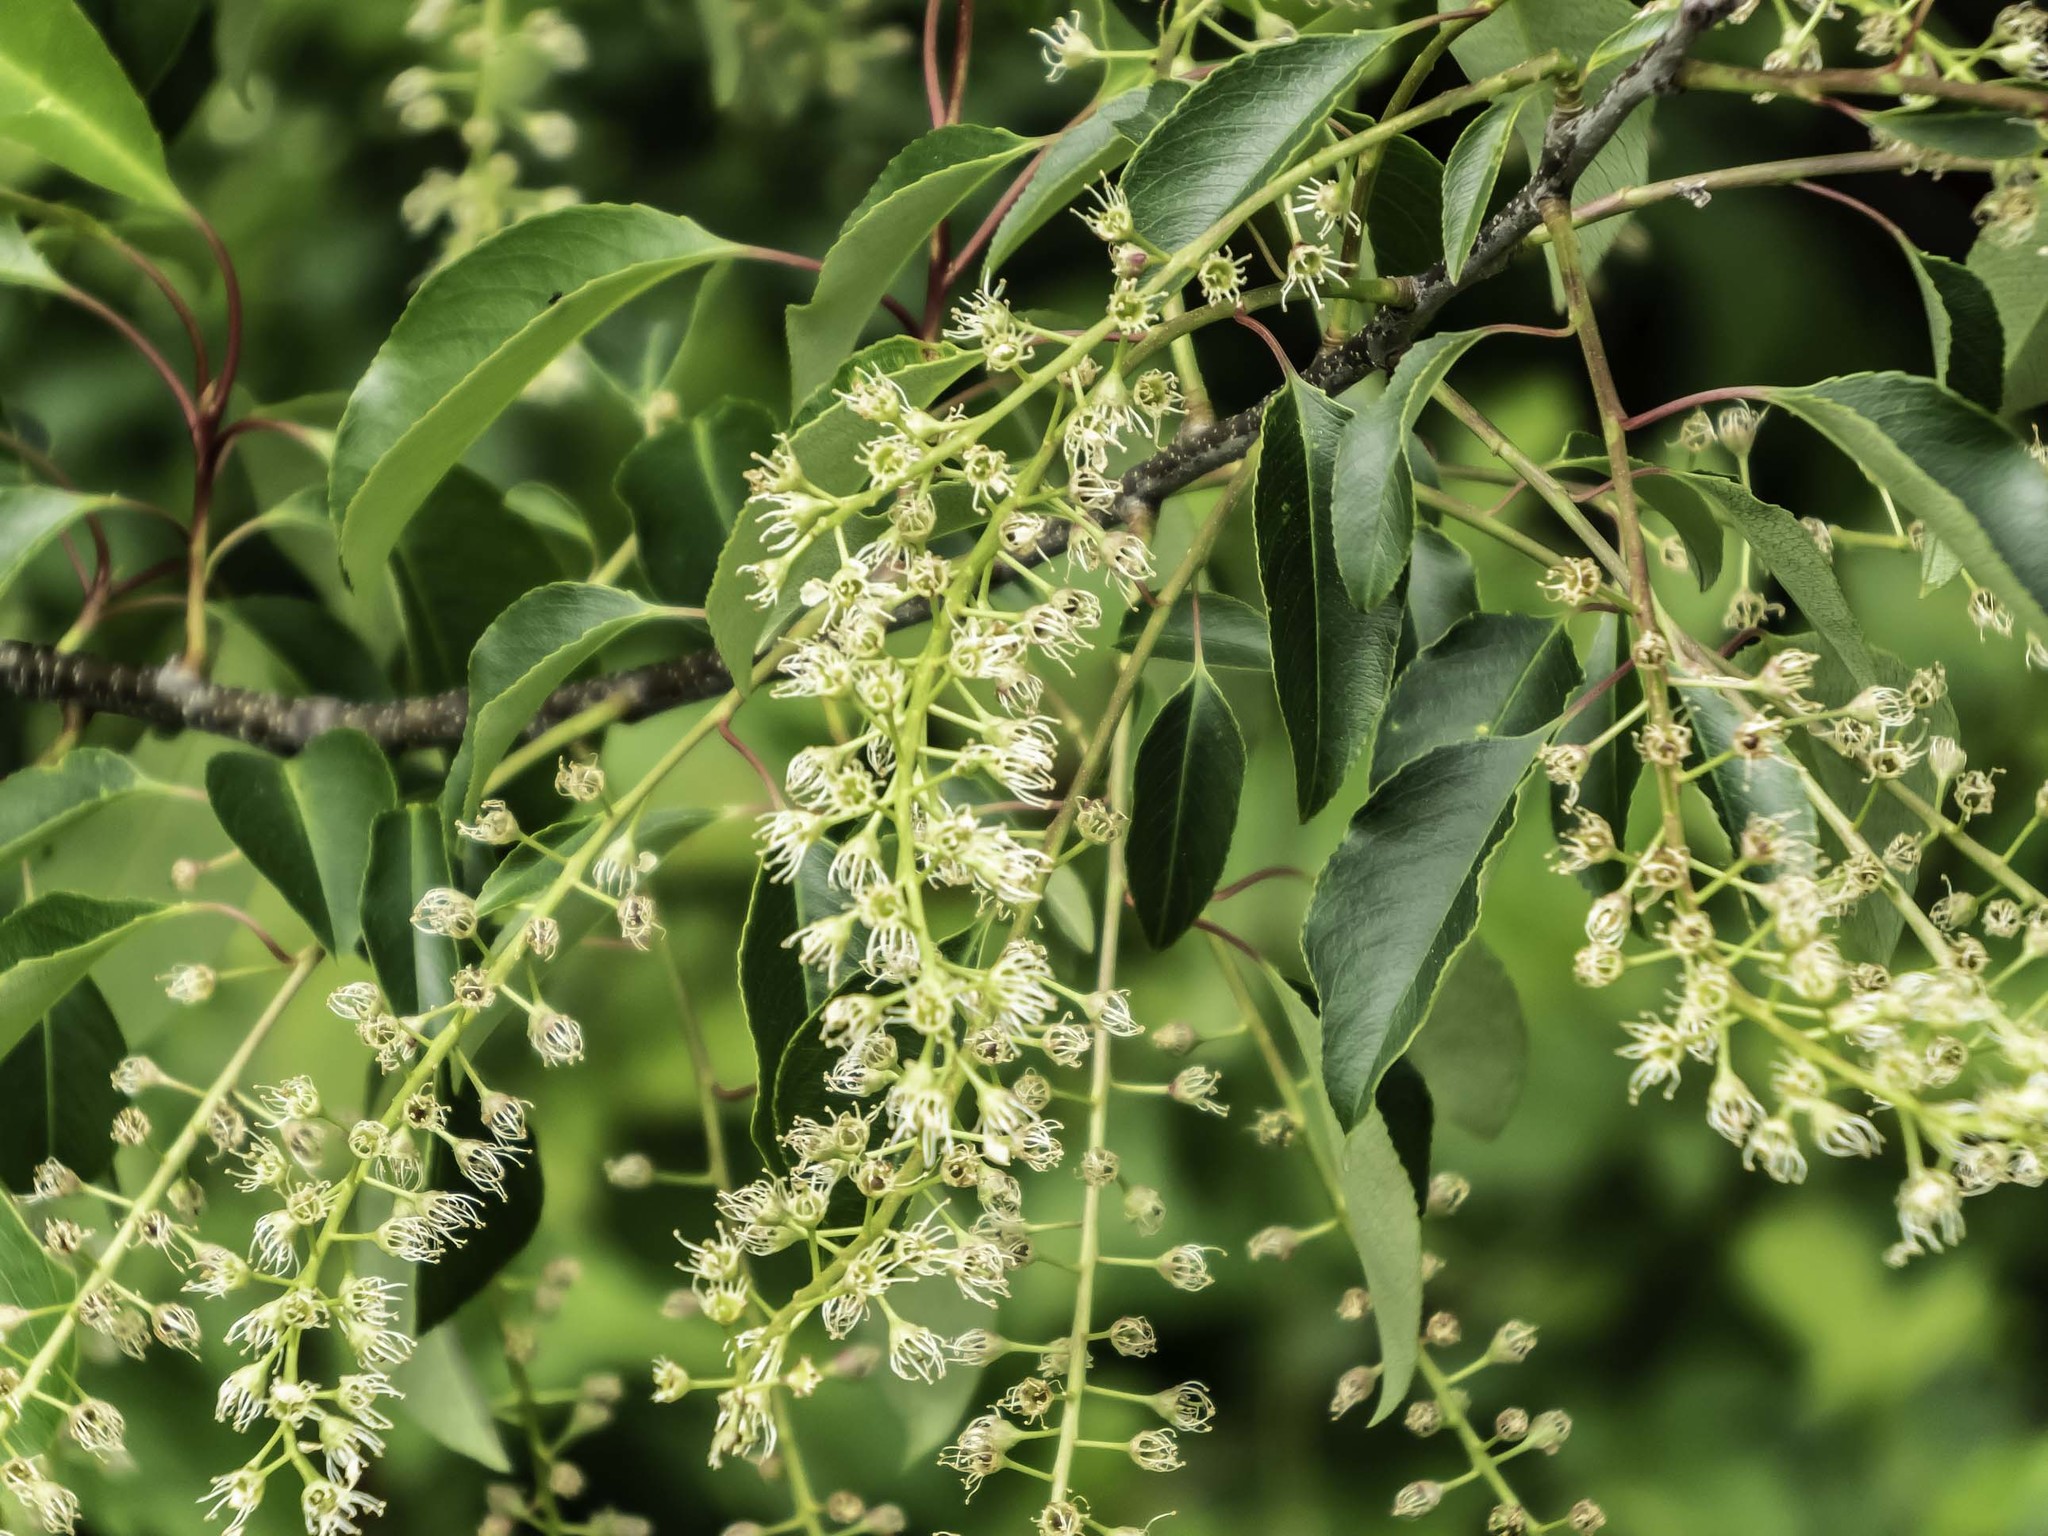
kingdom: Plantae
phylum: Tracheophyta
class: Magnoliopsida
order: Rosales
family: Rosaceae
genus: Prunus
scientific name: Prunus serotina
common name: Black cherry
